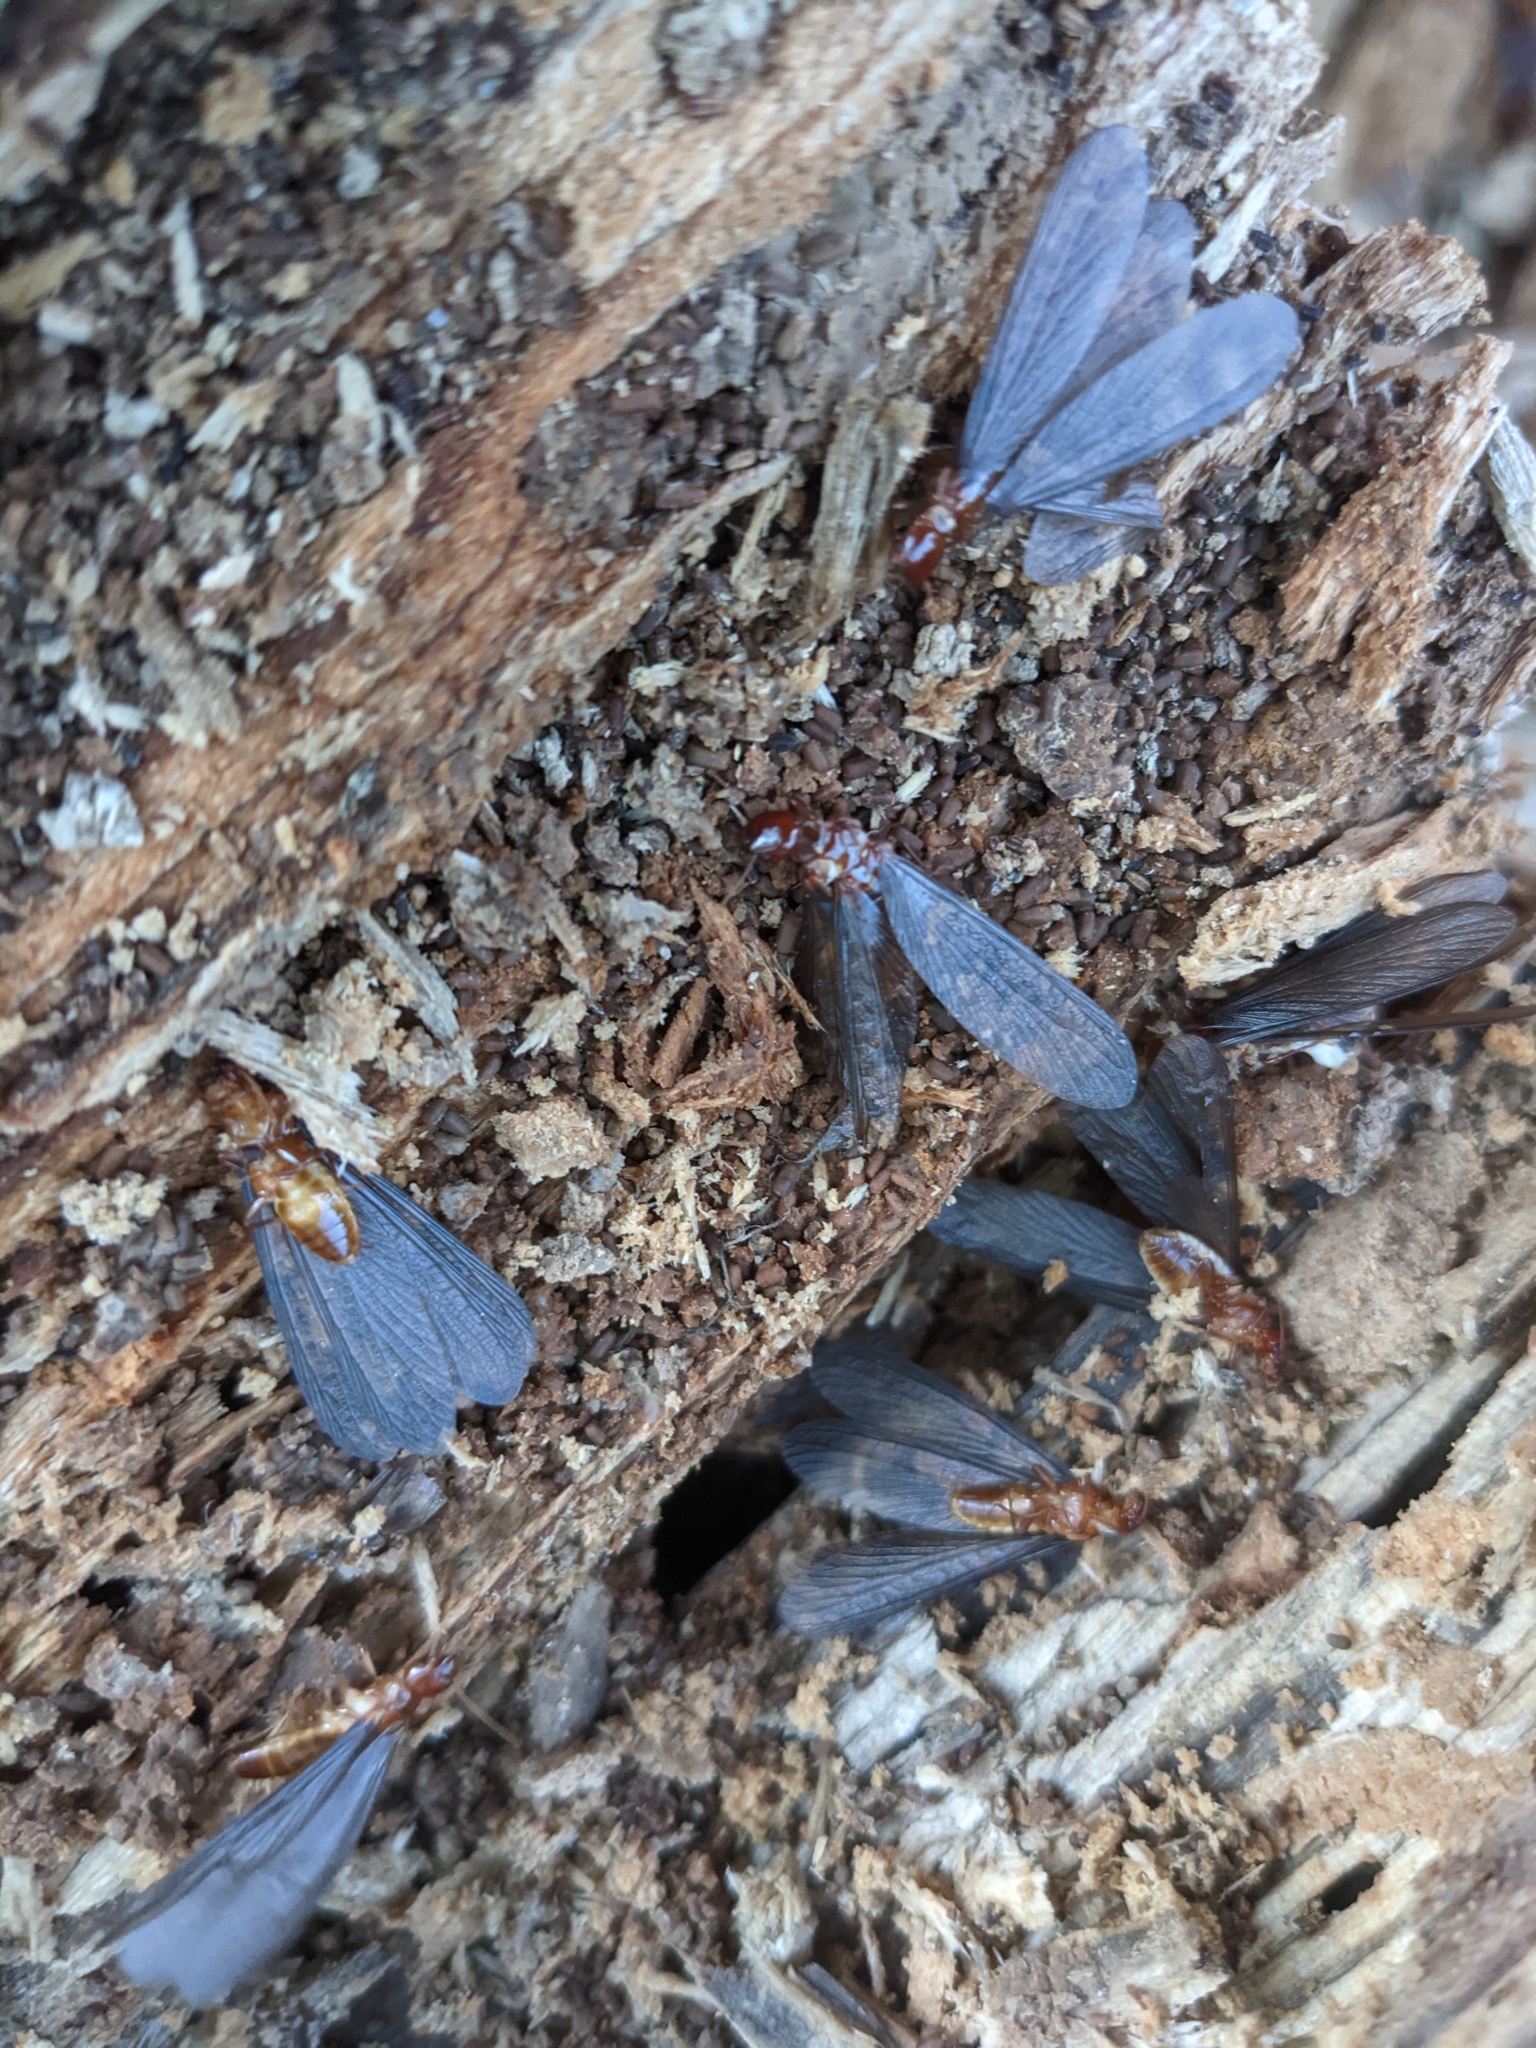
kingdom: Animalia
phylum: Arthropoda
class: Insecta
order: Blattodea
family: Archotermopsidae
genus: Zootermopsis
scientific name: Zootermopsis nevadensis
